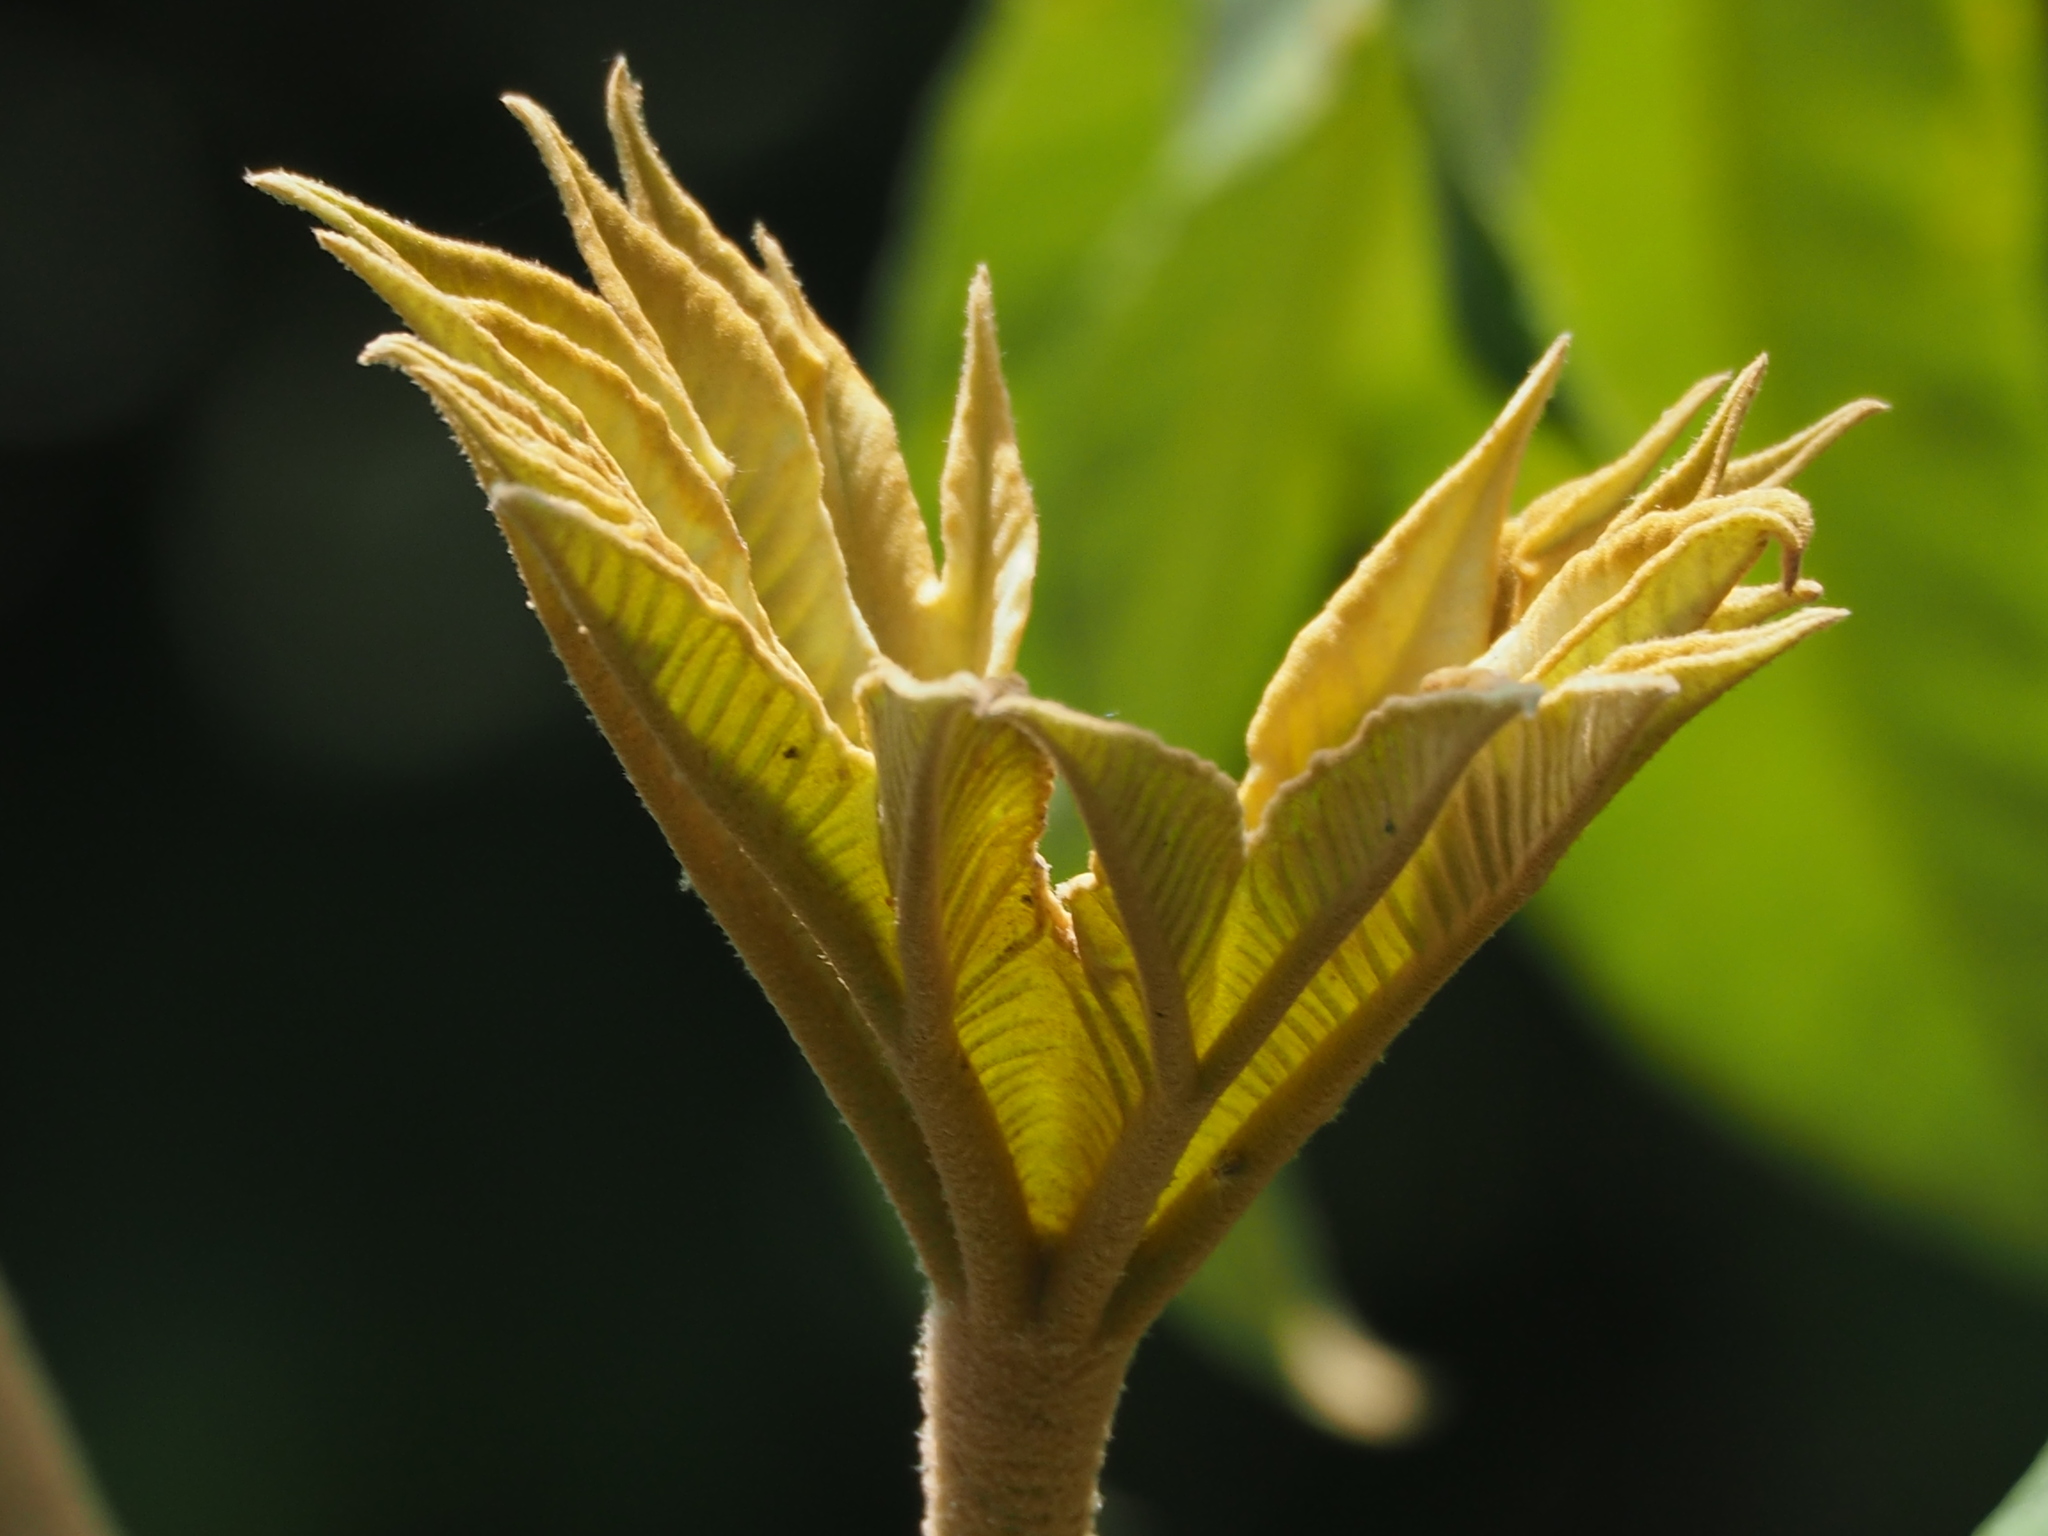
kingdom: Plantae
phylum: Tracheophyta
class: Magnoliopsida
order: Apiales
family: Araliaceae
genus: Tetrapanax
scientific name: Tetrapanax papyrifer
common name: Rice-paper plant
